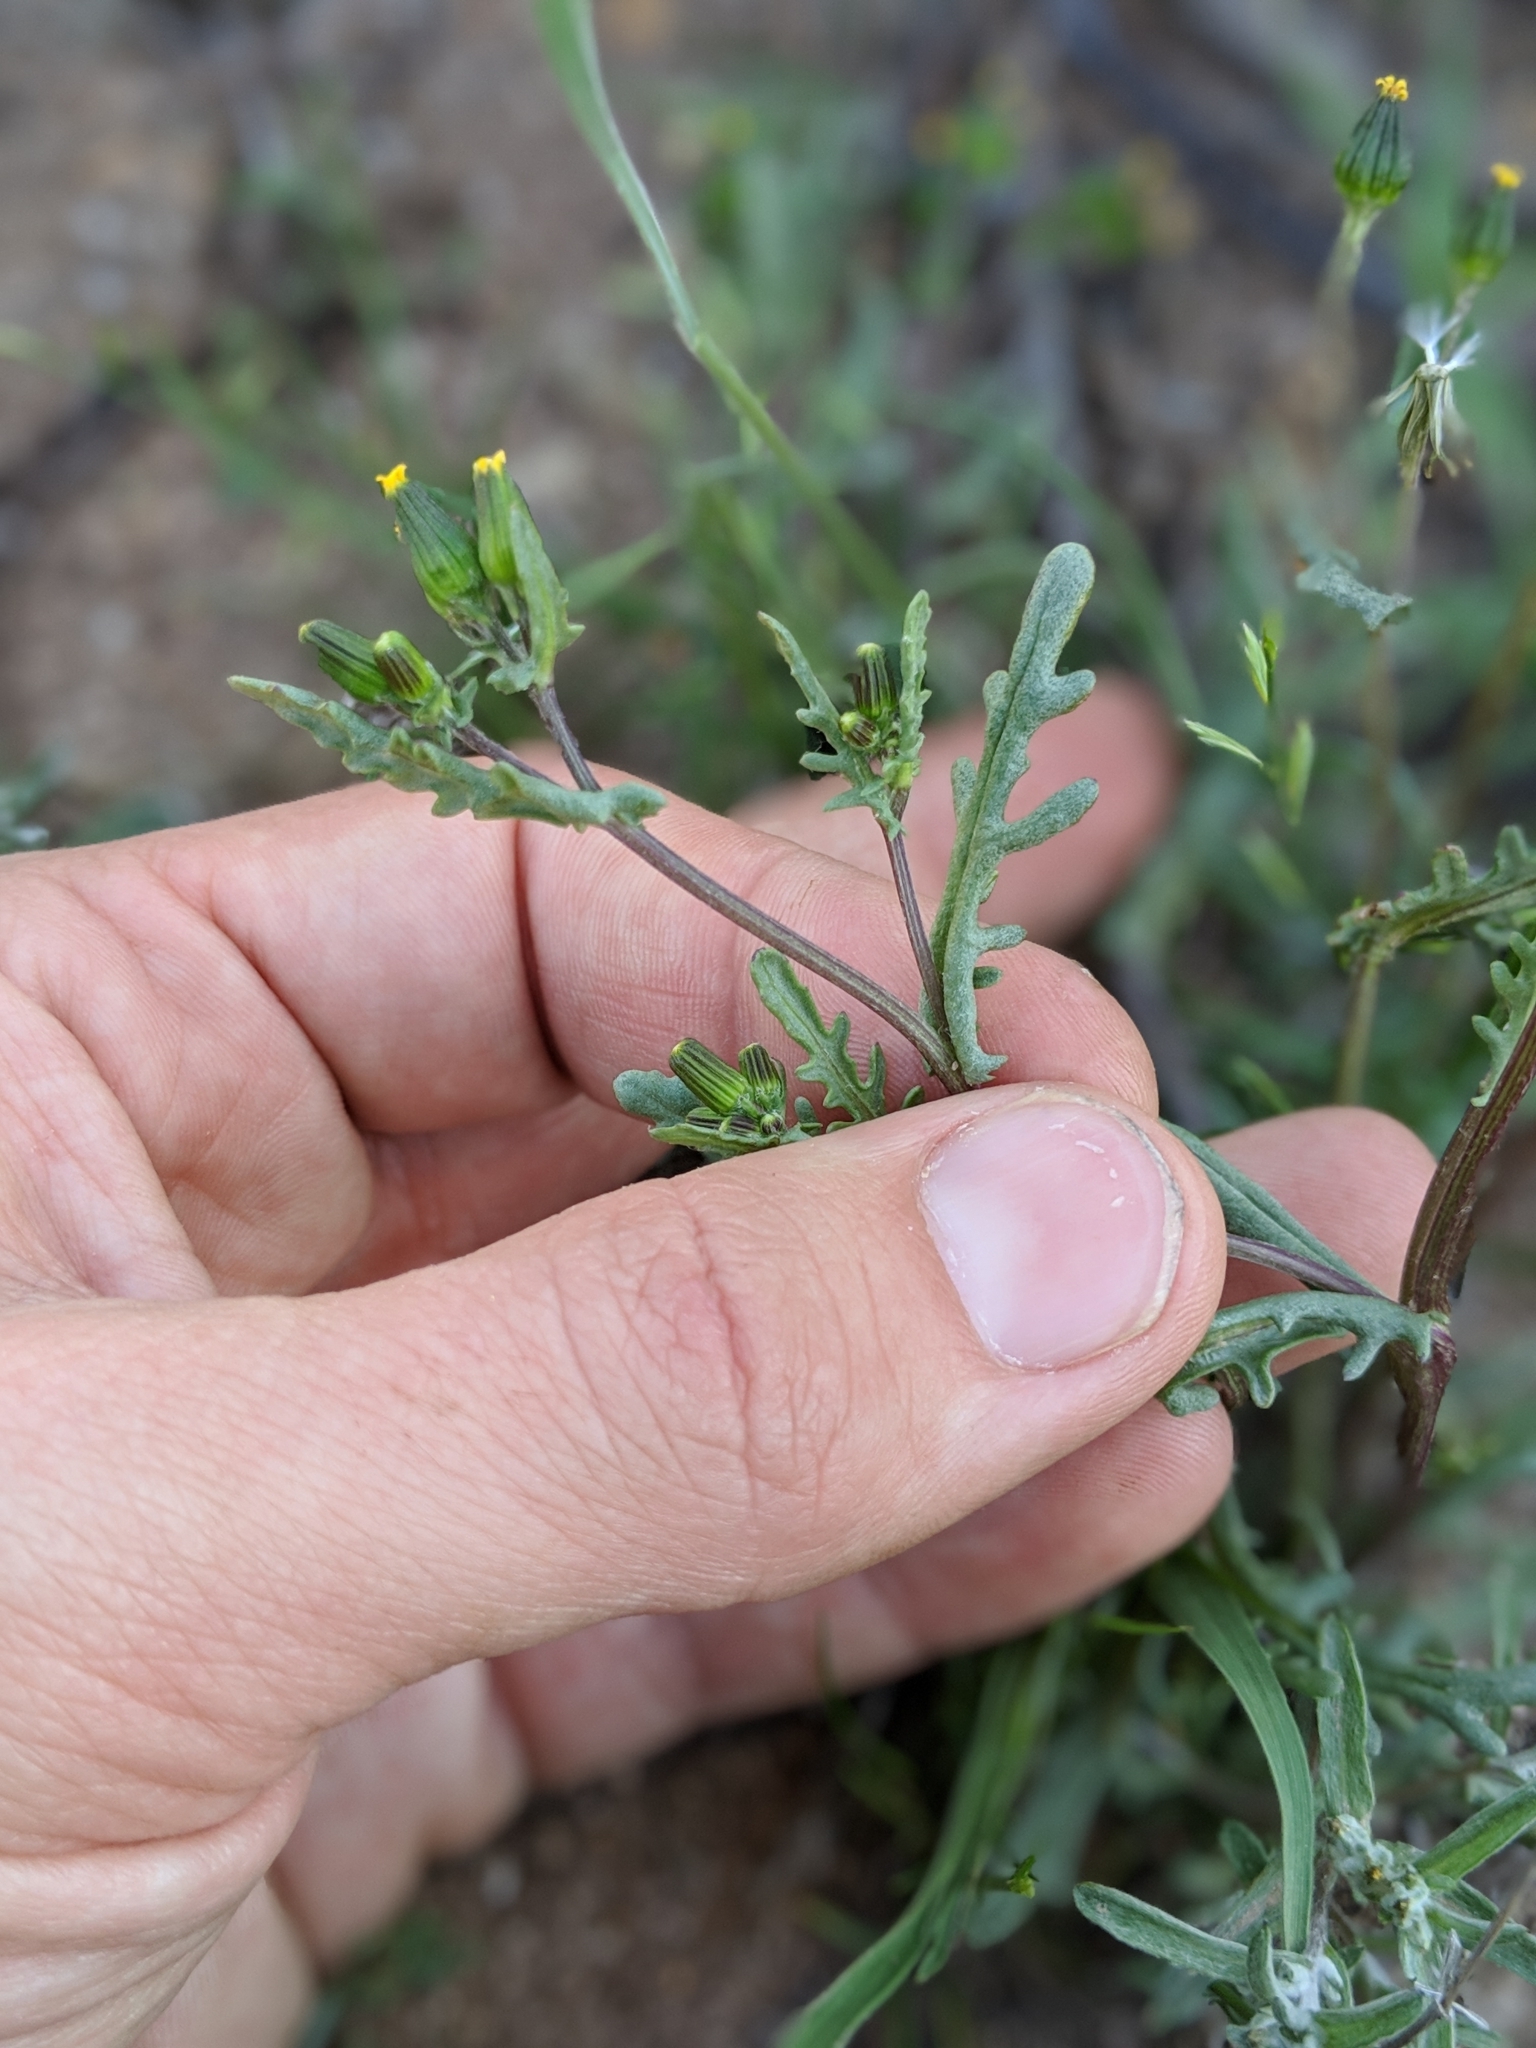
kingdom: Plantae
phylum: Tracheophyta
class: Magnoliopsida
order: Asterales
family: Asteraceae
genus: Senecio
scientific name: Senecio aphanactis
